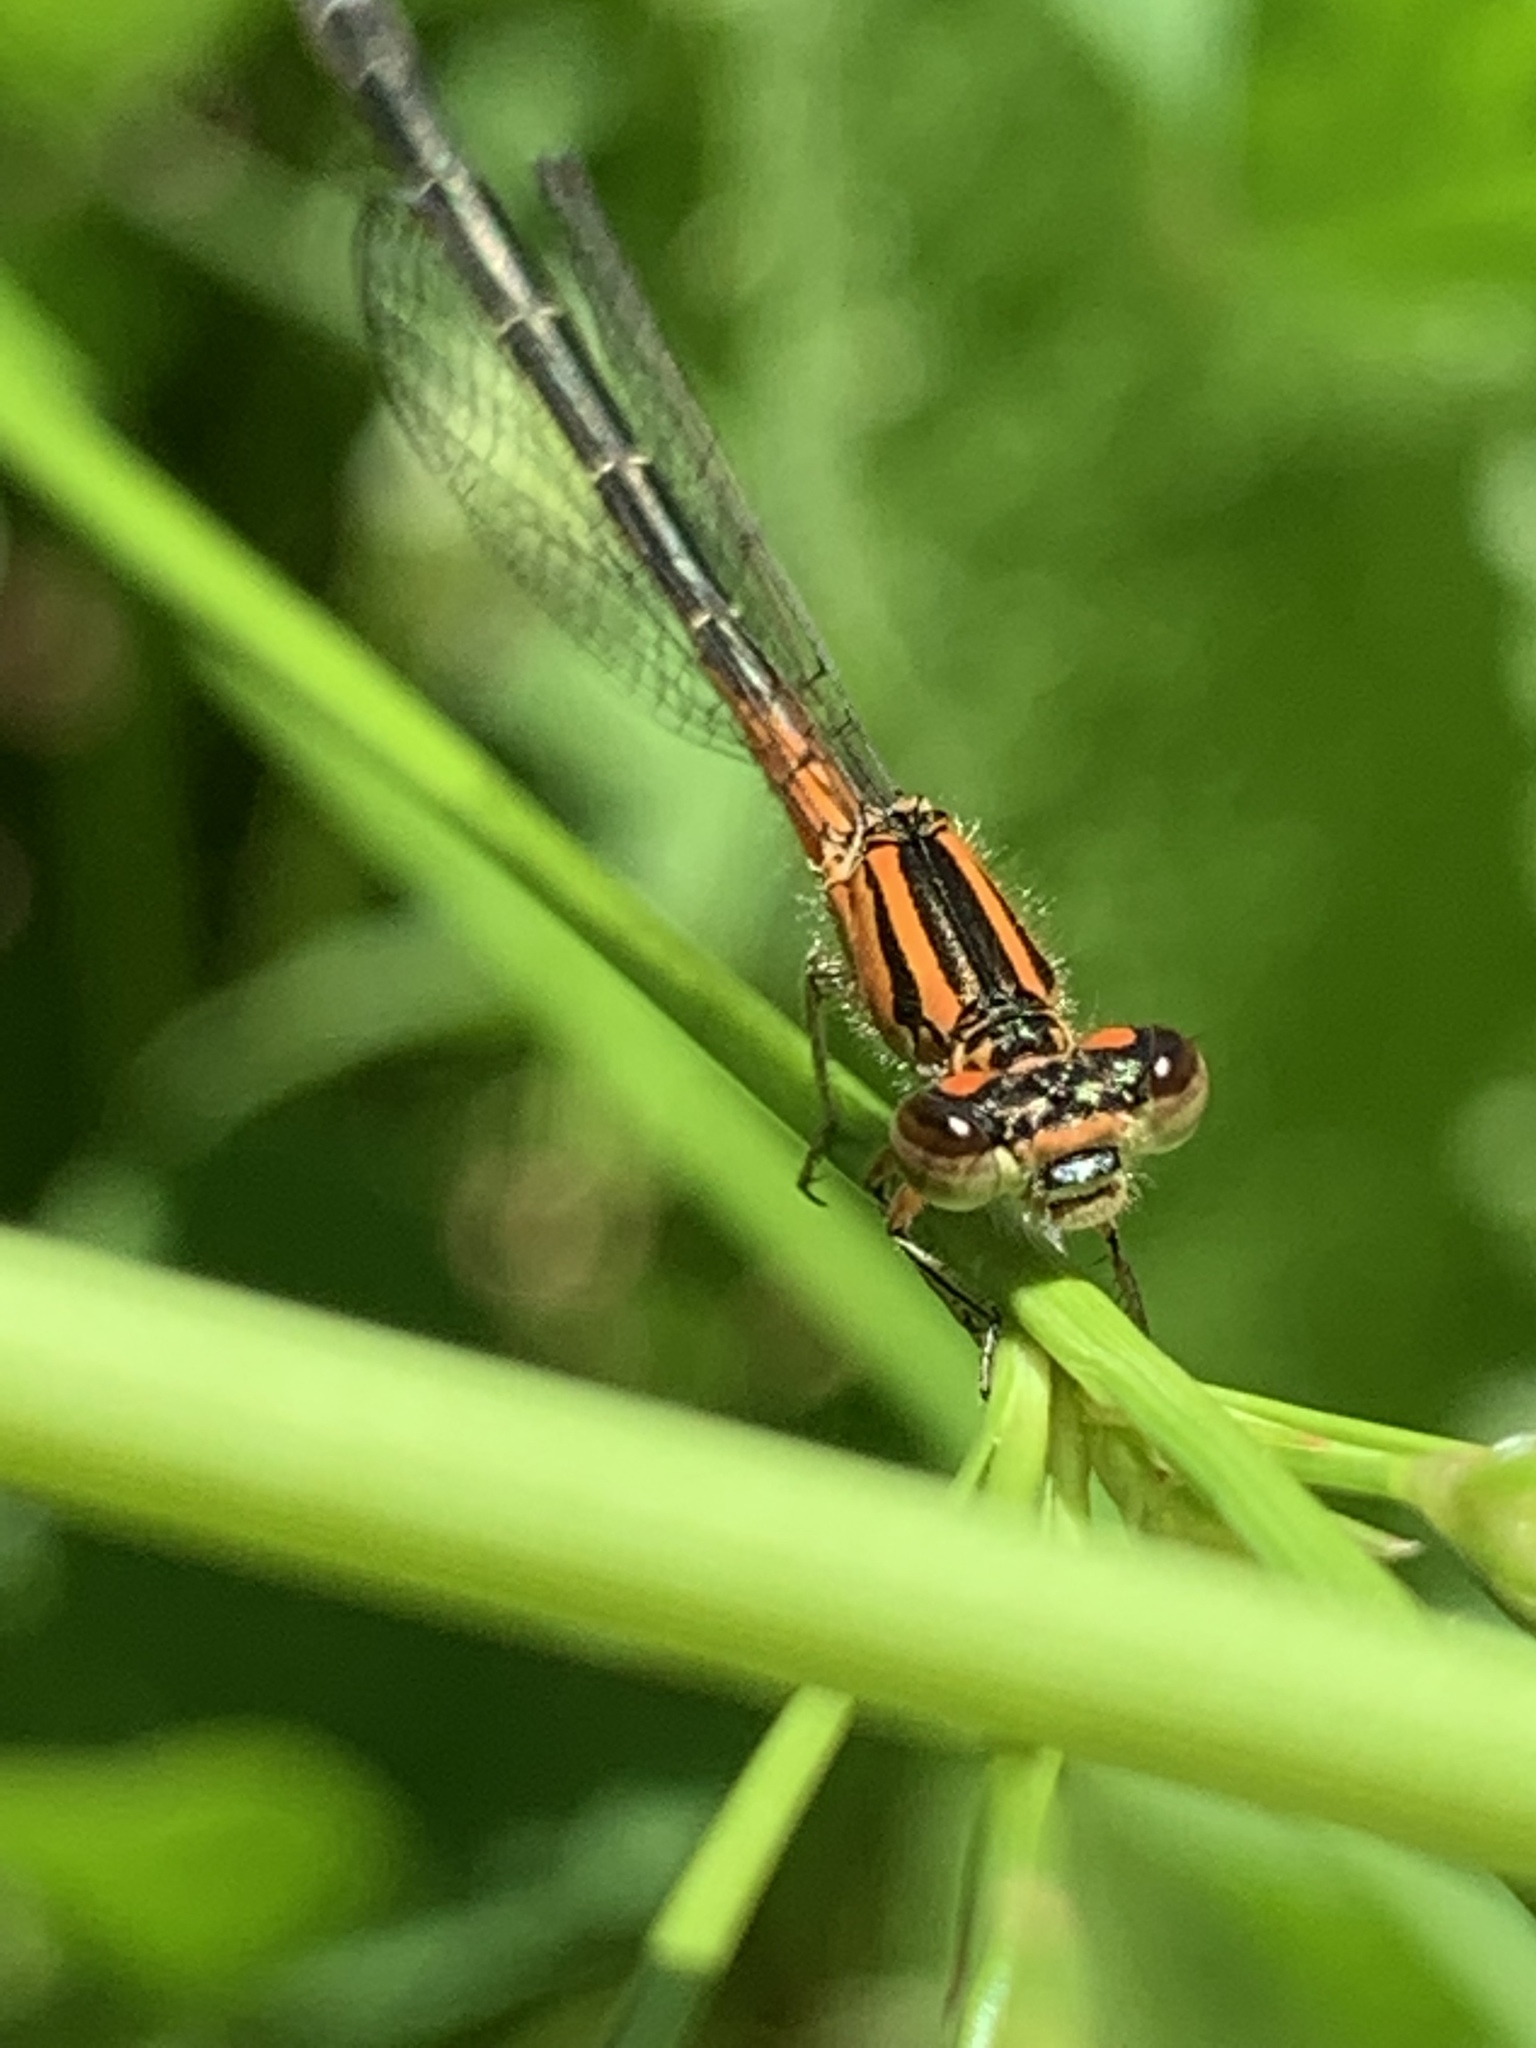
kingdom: Animalia
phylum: Arthropoda
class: Insecta
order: Odonata
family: Coenagrionidae
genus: Ischnura
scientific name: Ischnura verticalis
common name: Eastern forktail
